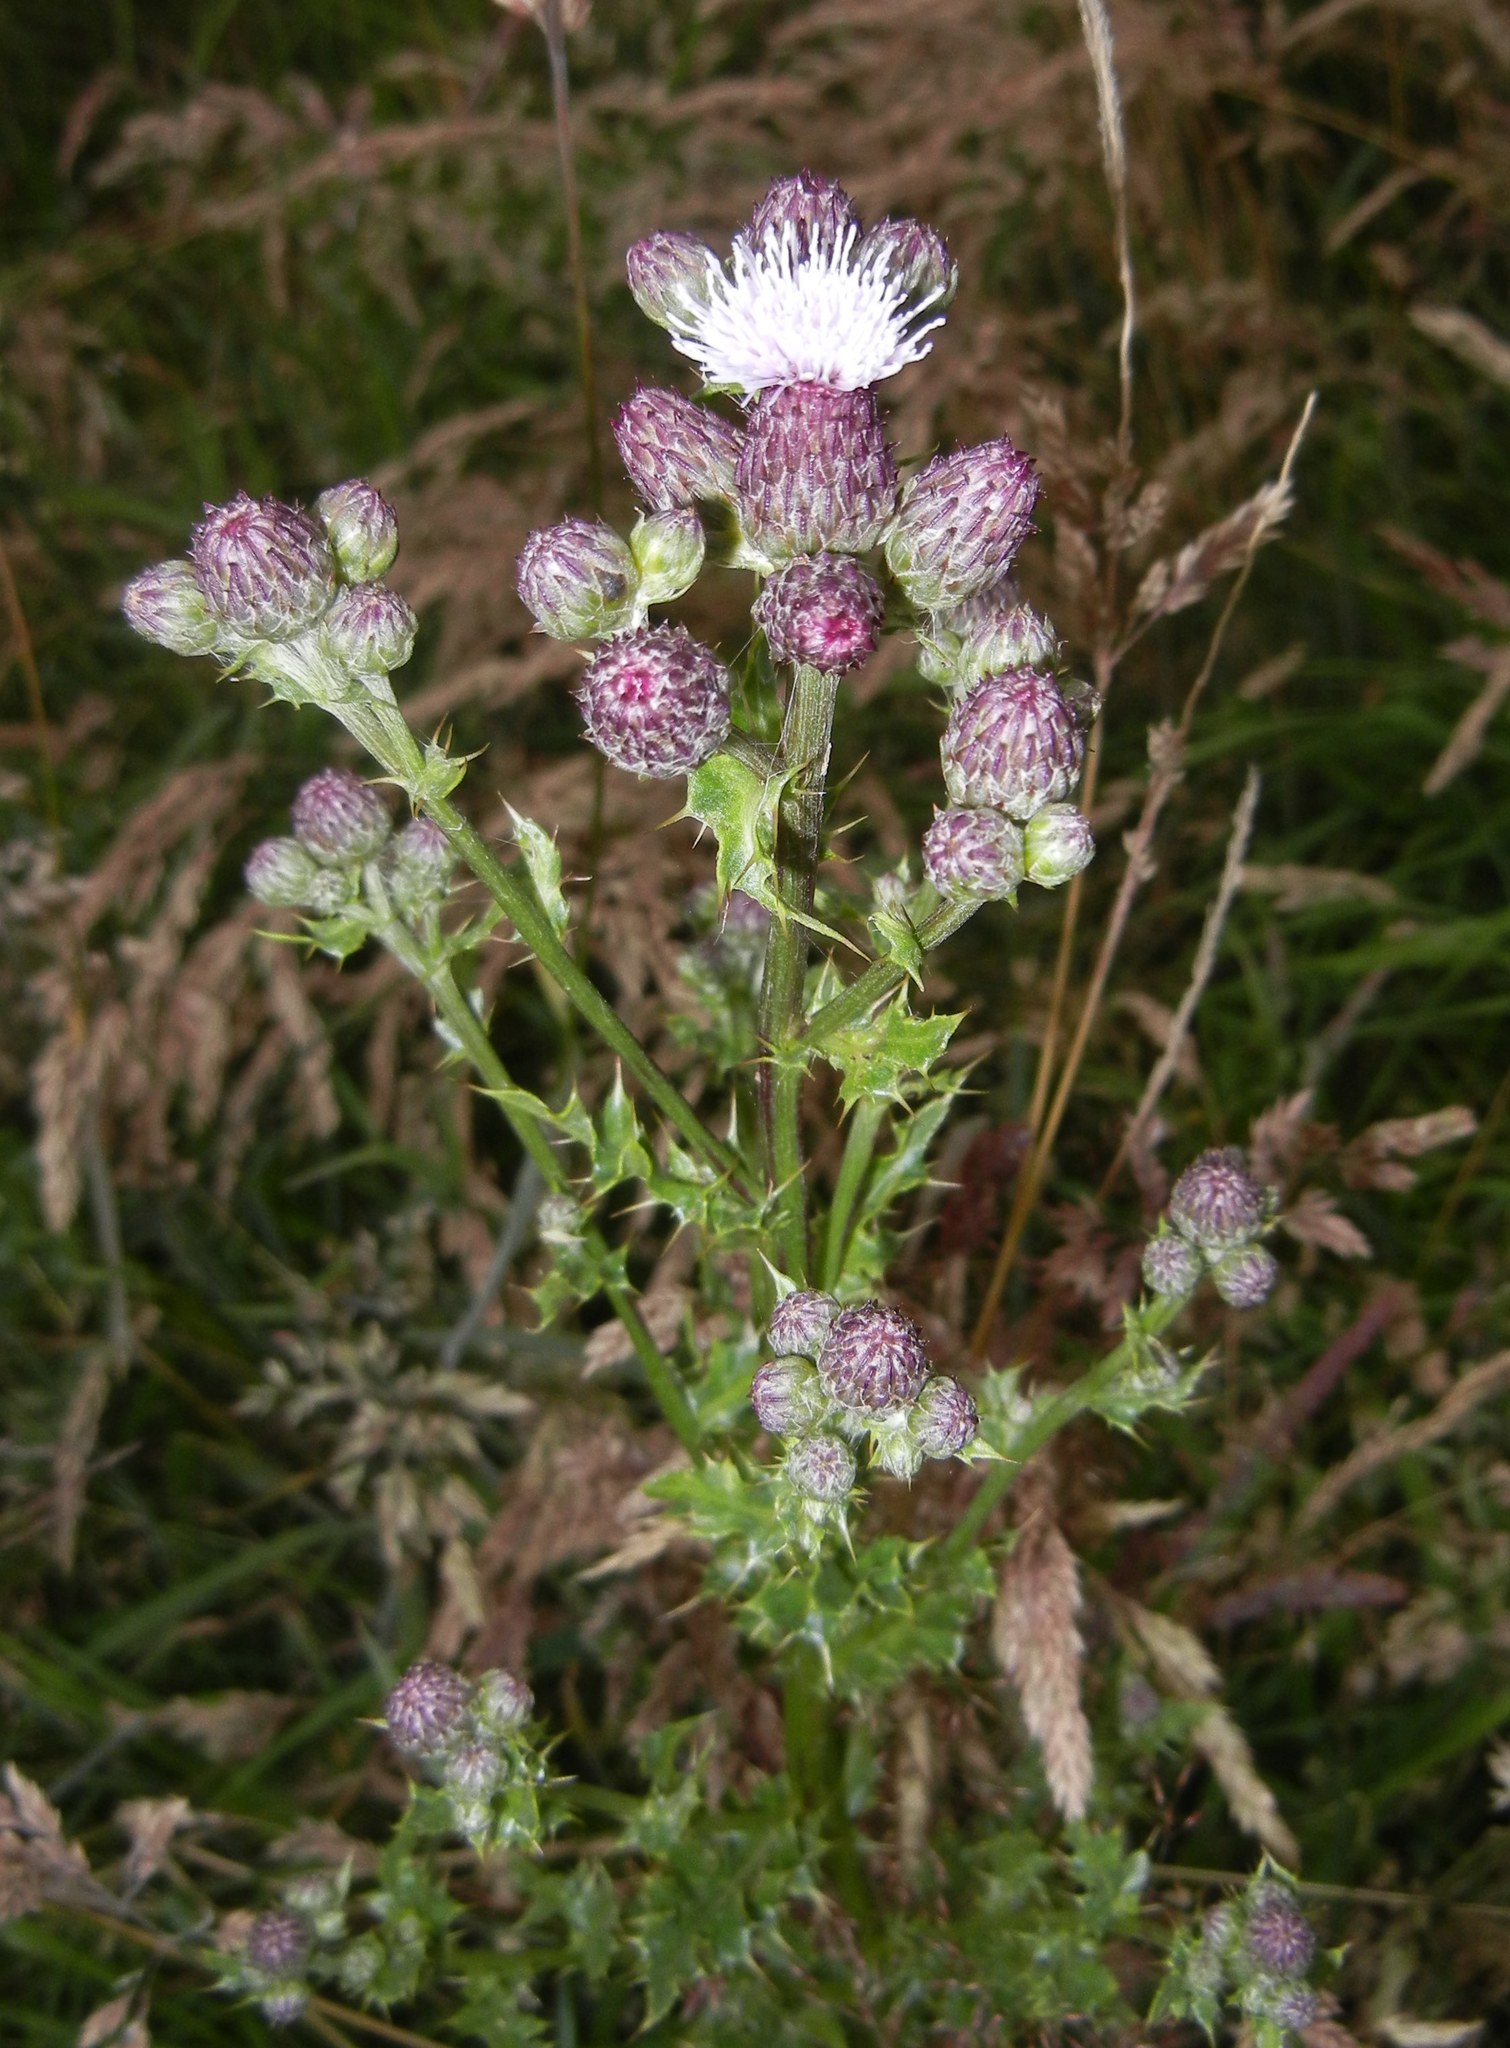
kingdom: Plantae
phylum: Tracheophyta
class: Magnoliopsida
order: Asterales
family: Asteraceae
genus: Cirsium
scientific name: Cirsium arvense
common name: Creeping thistle
